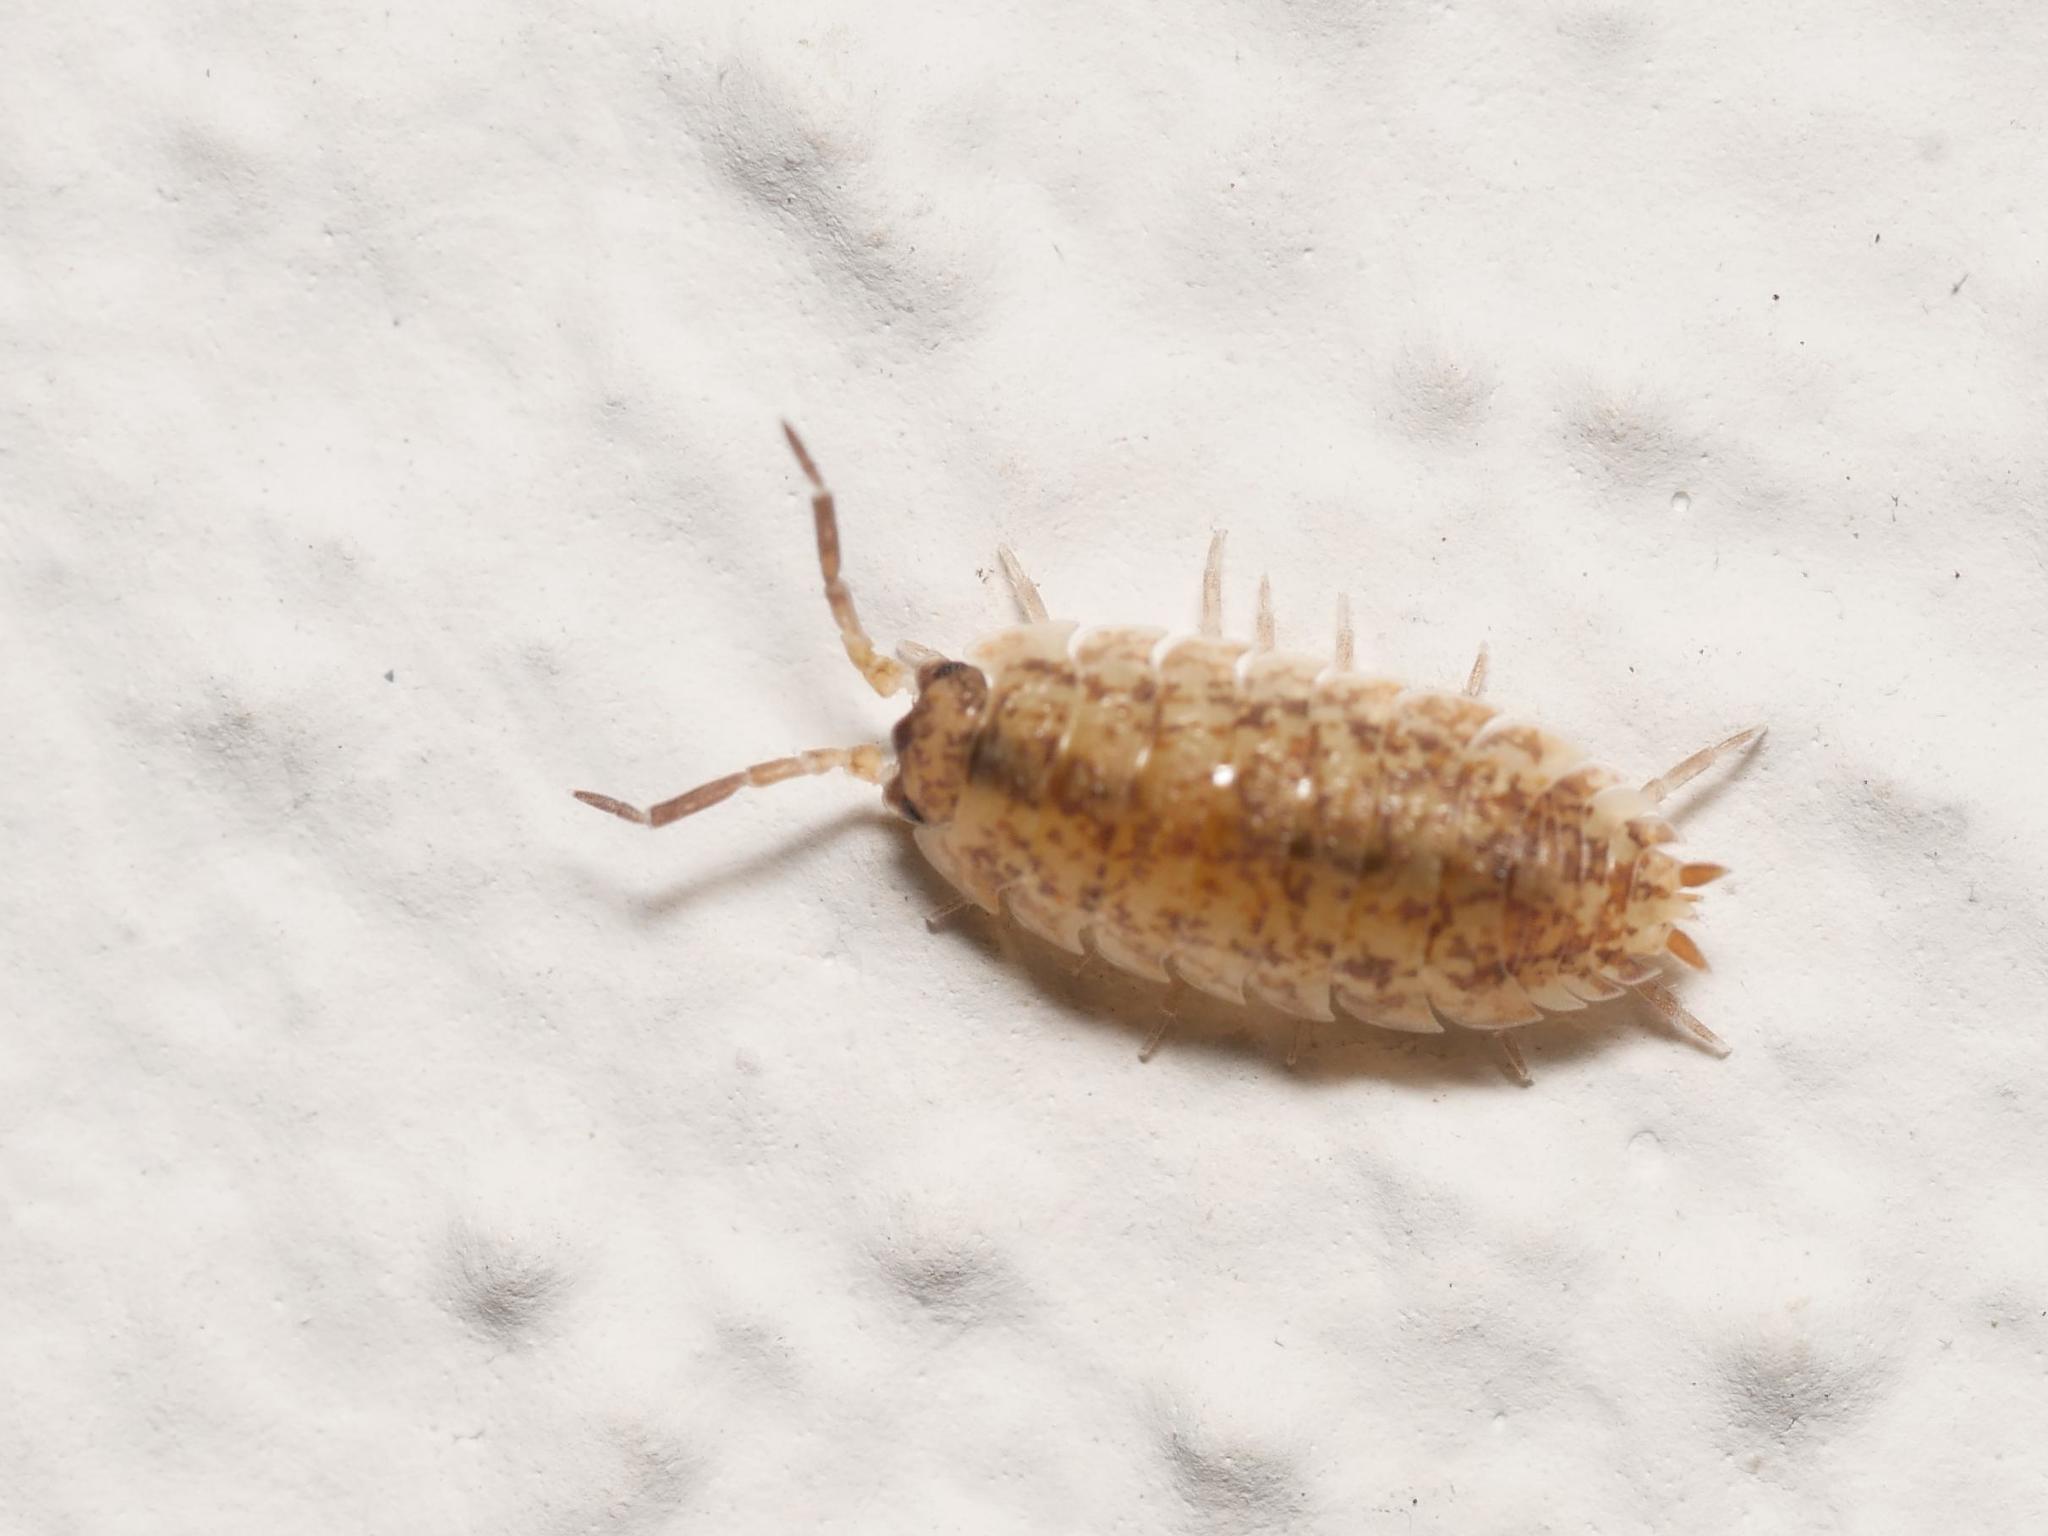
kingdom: Animalia
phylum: Arthropoda
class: Malacostraca
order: Isopoda
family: Porcellionidae
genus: Porcellio
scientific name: Porcellio scaber
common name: Common rough woodlouse
